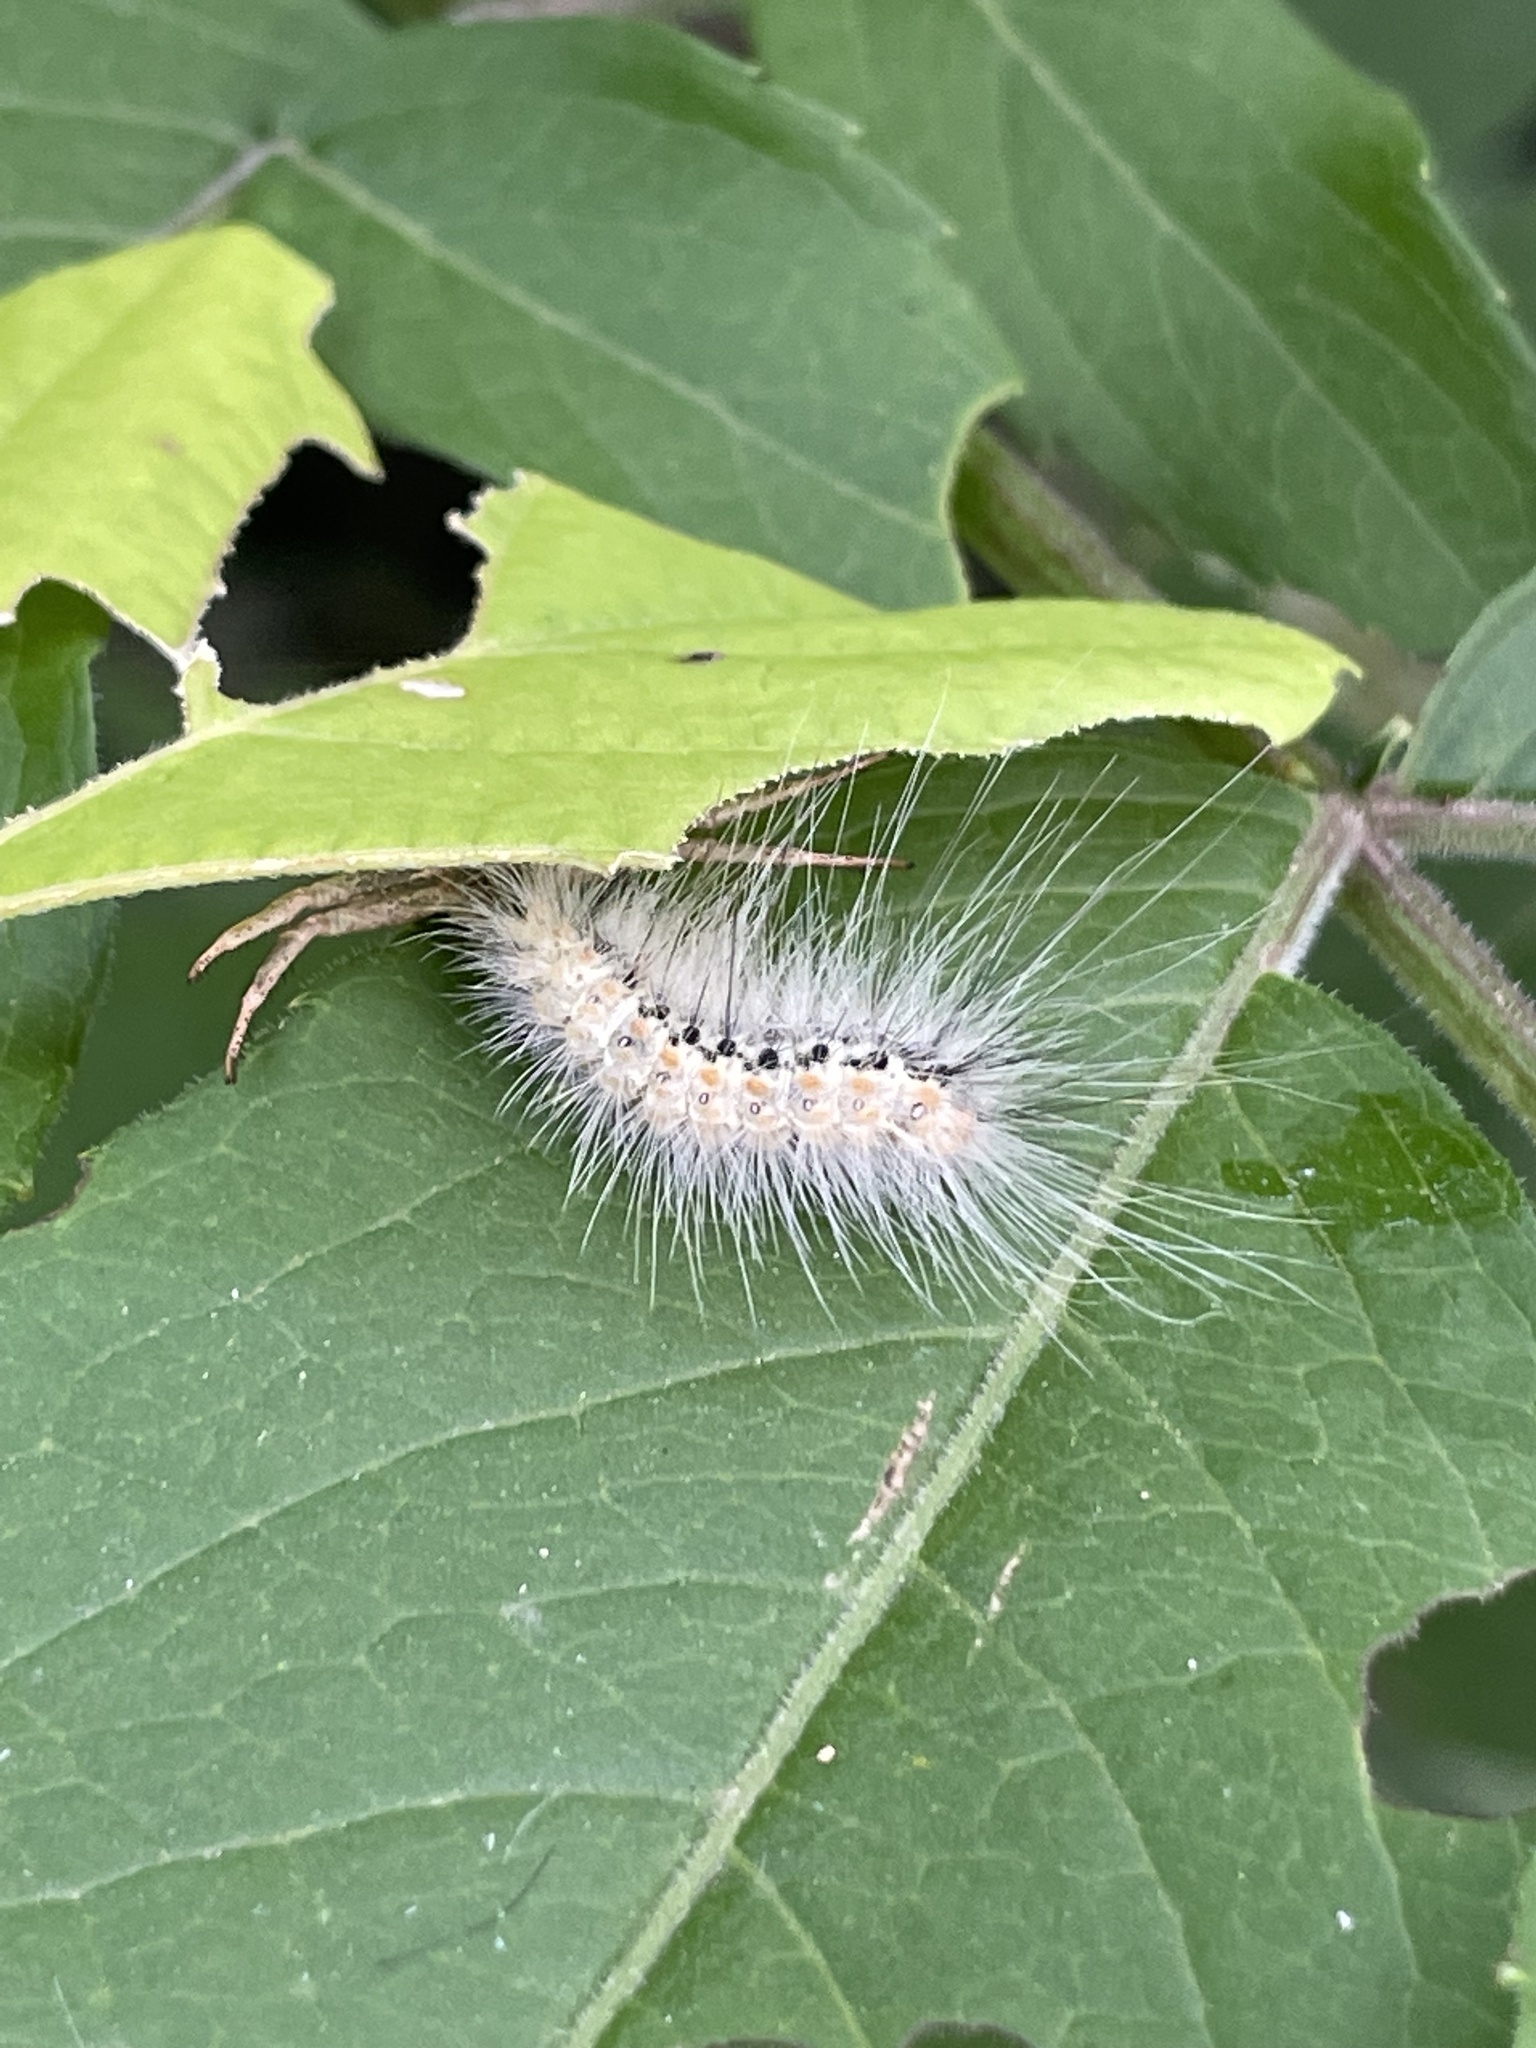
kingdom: Animalia
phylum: Arthropoda
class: Insecta
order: Lepidoptera
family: Erebidae
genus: Hyphantria
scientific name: Hyphantria cunea
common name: American white moth
